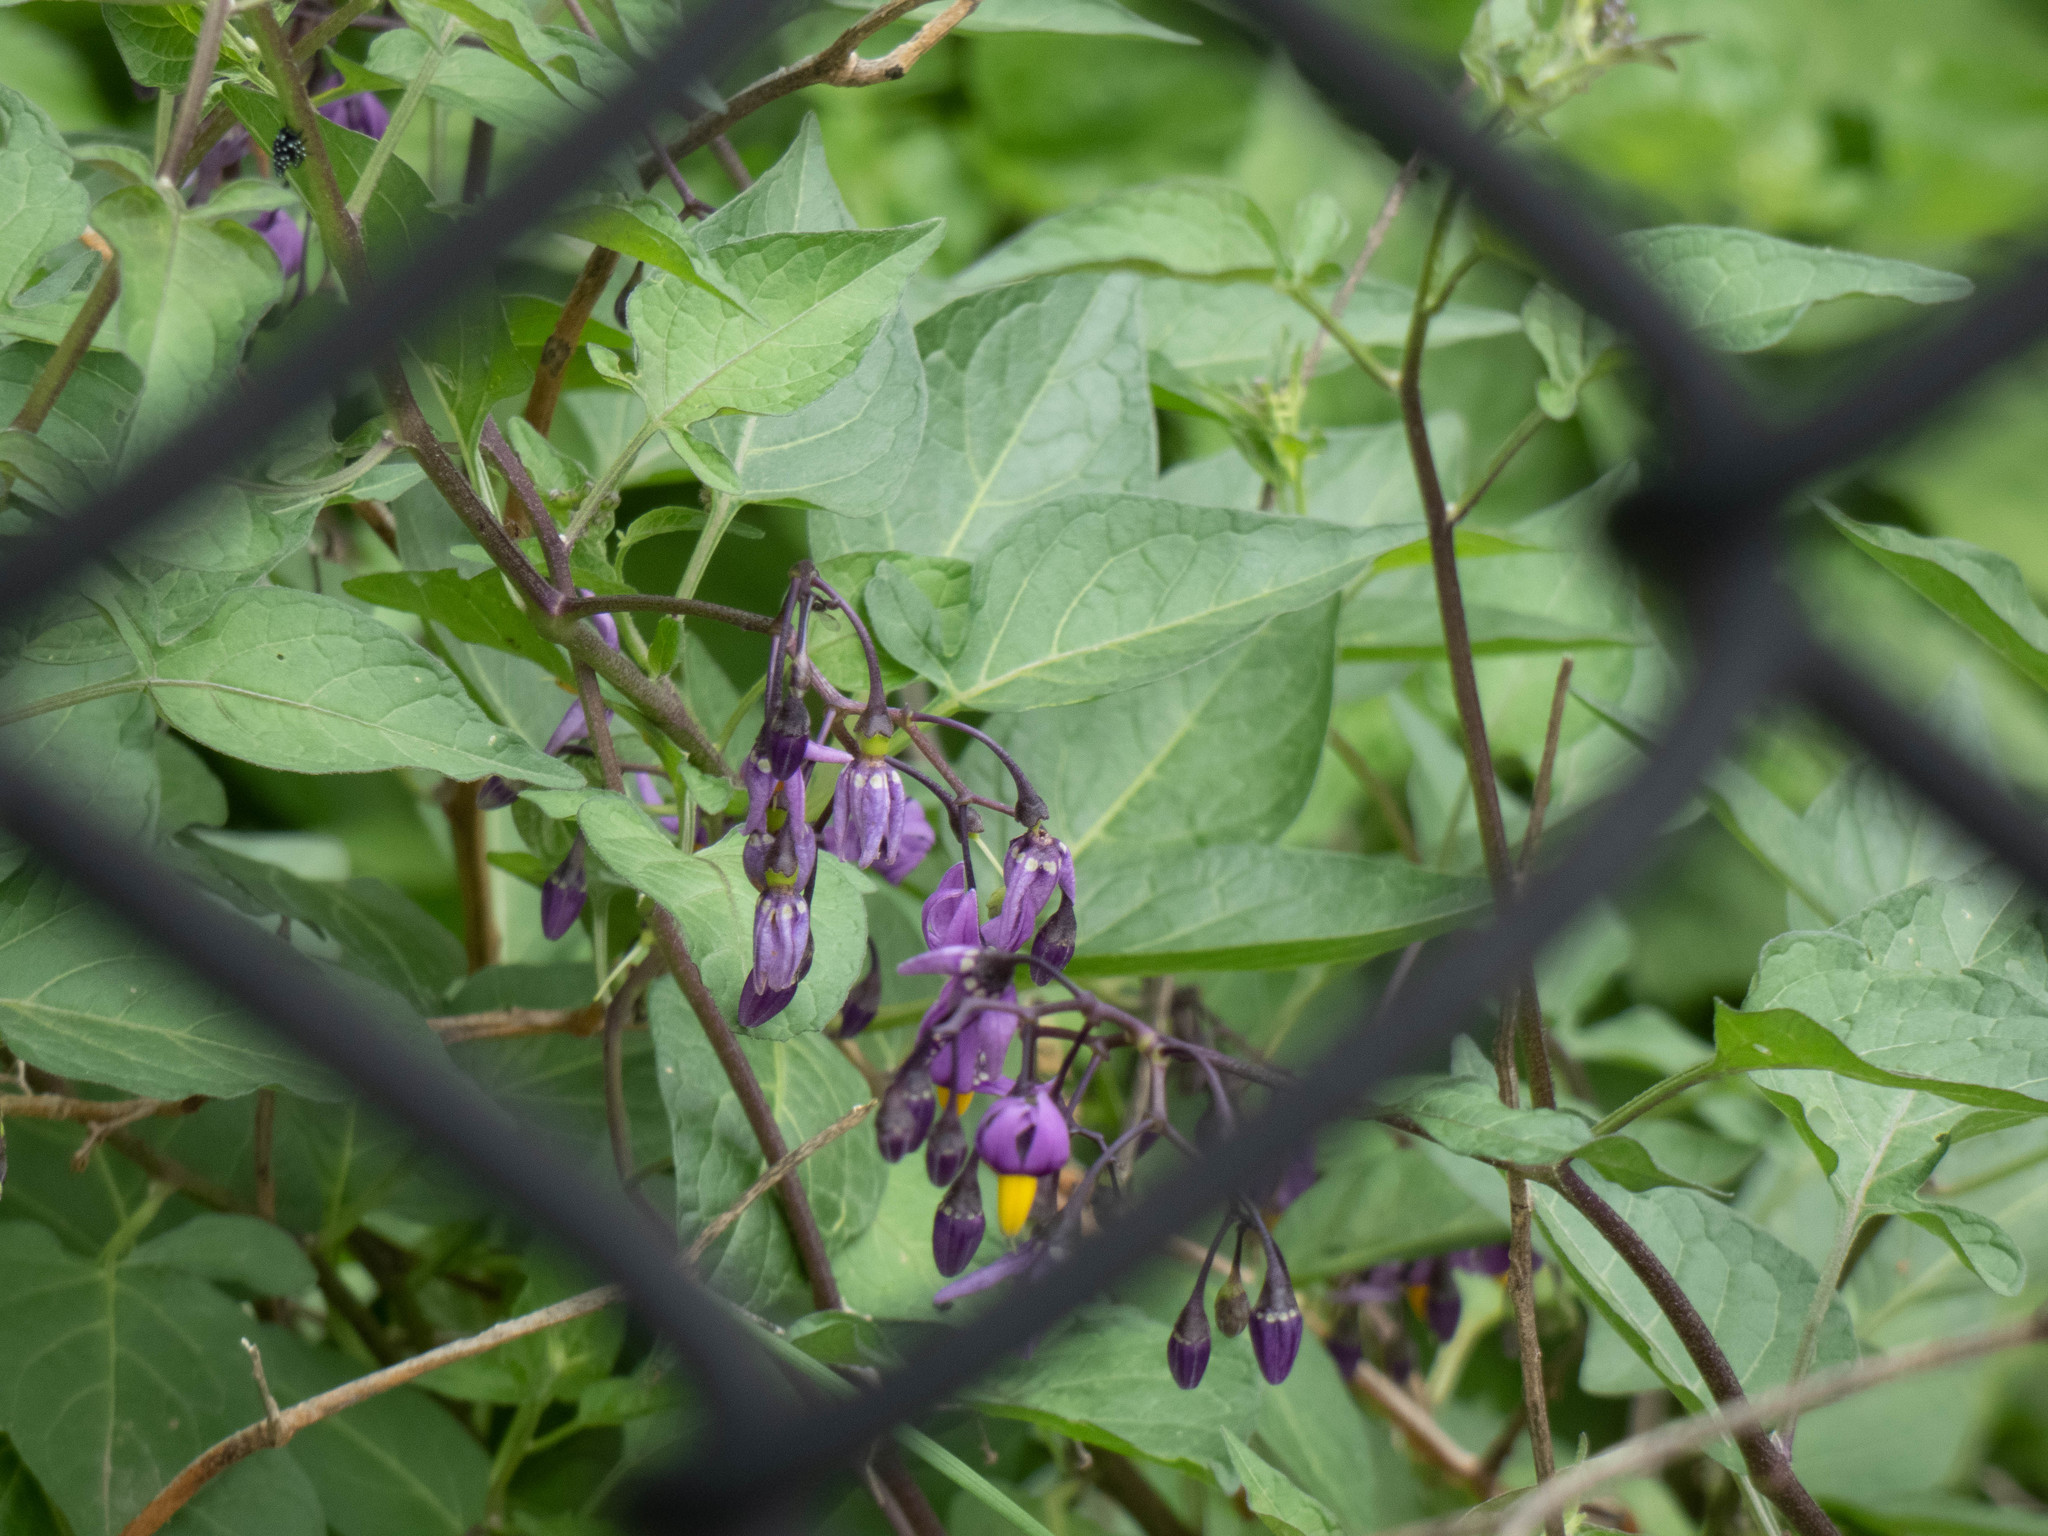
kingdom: Plantae
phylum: Tracheophyta
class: Magnoliopsida
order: Solanales
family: Solanaceae
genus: Solanum
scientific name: Solanum dulcamara
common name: Climbing nightshade
